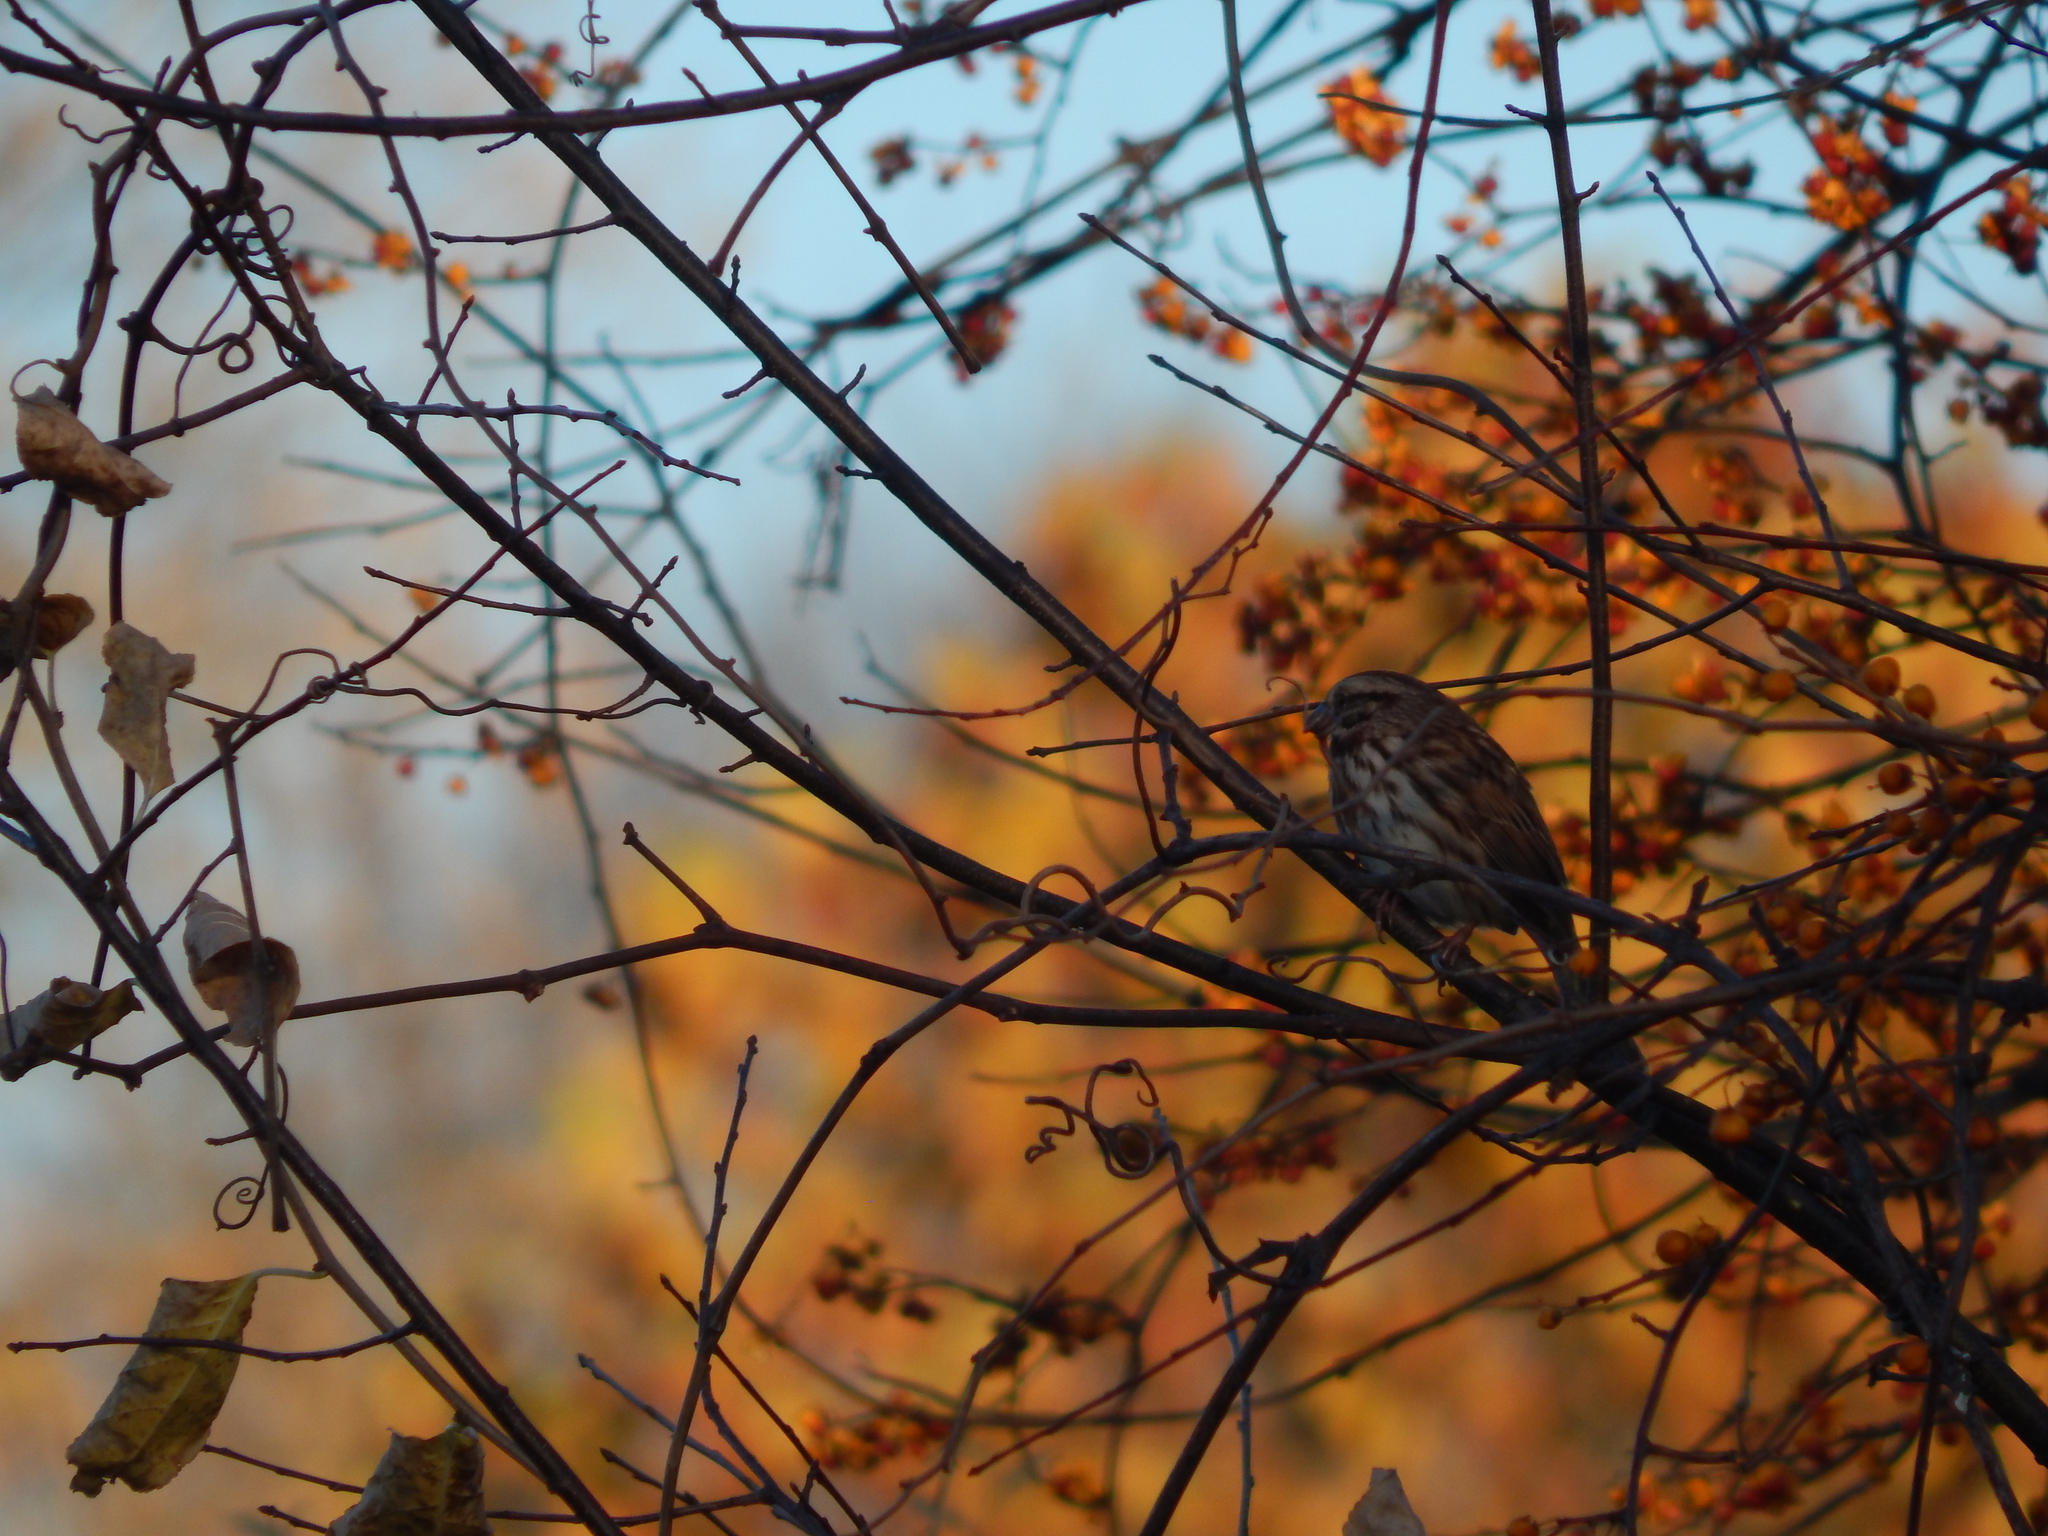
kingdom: Animalia
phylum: Chordata
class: Aves
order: Passeriformes
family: Passerellidae
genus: Melospiza
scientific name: Melospiza melodia
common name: Song sparrow
